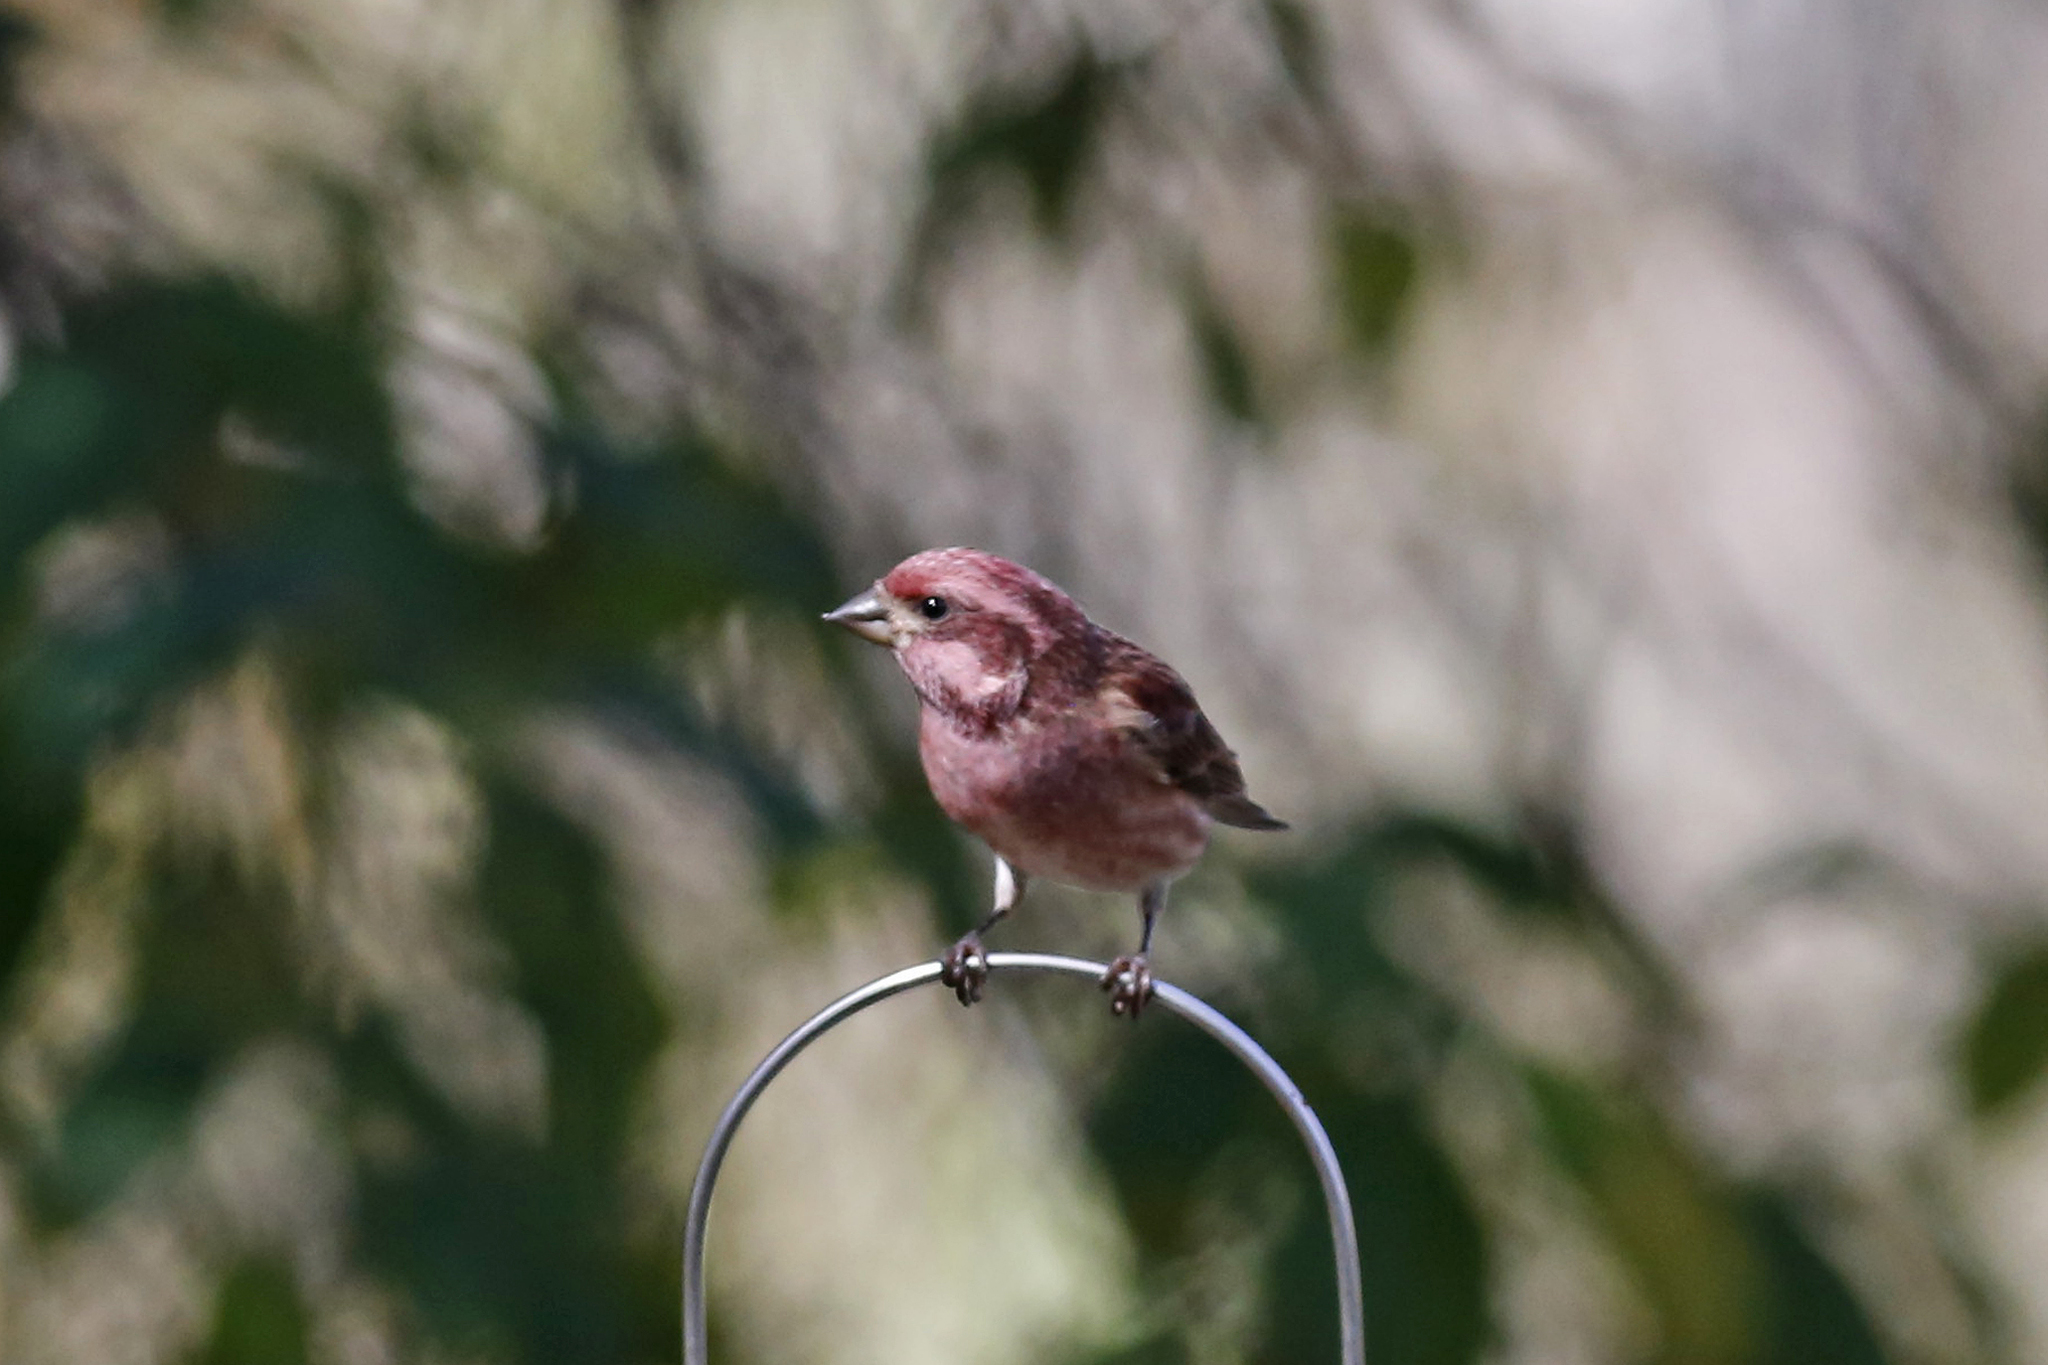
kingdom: Animalia
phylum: Chordata
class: Aves
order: Passeriformes
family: Fringillidae
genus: Haemorhous
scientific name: Haemorhous purpureus
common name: Purple finch
